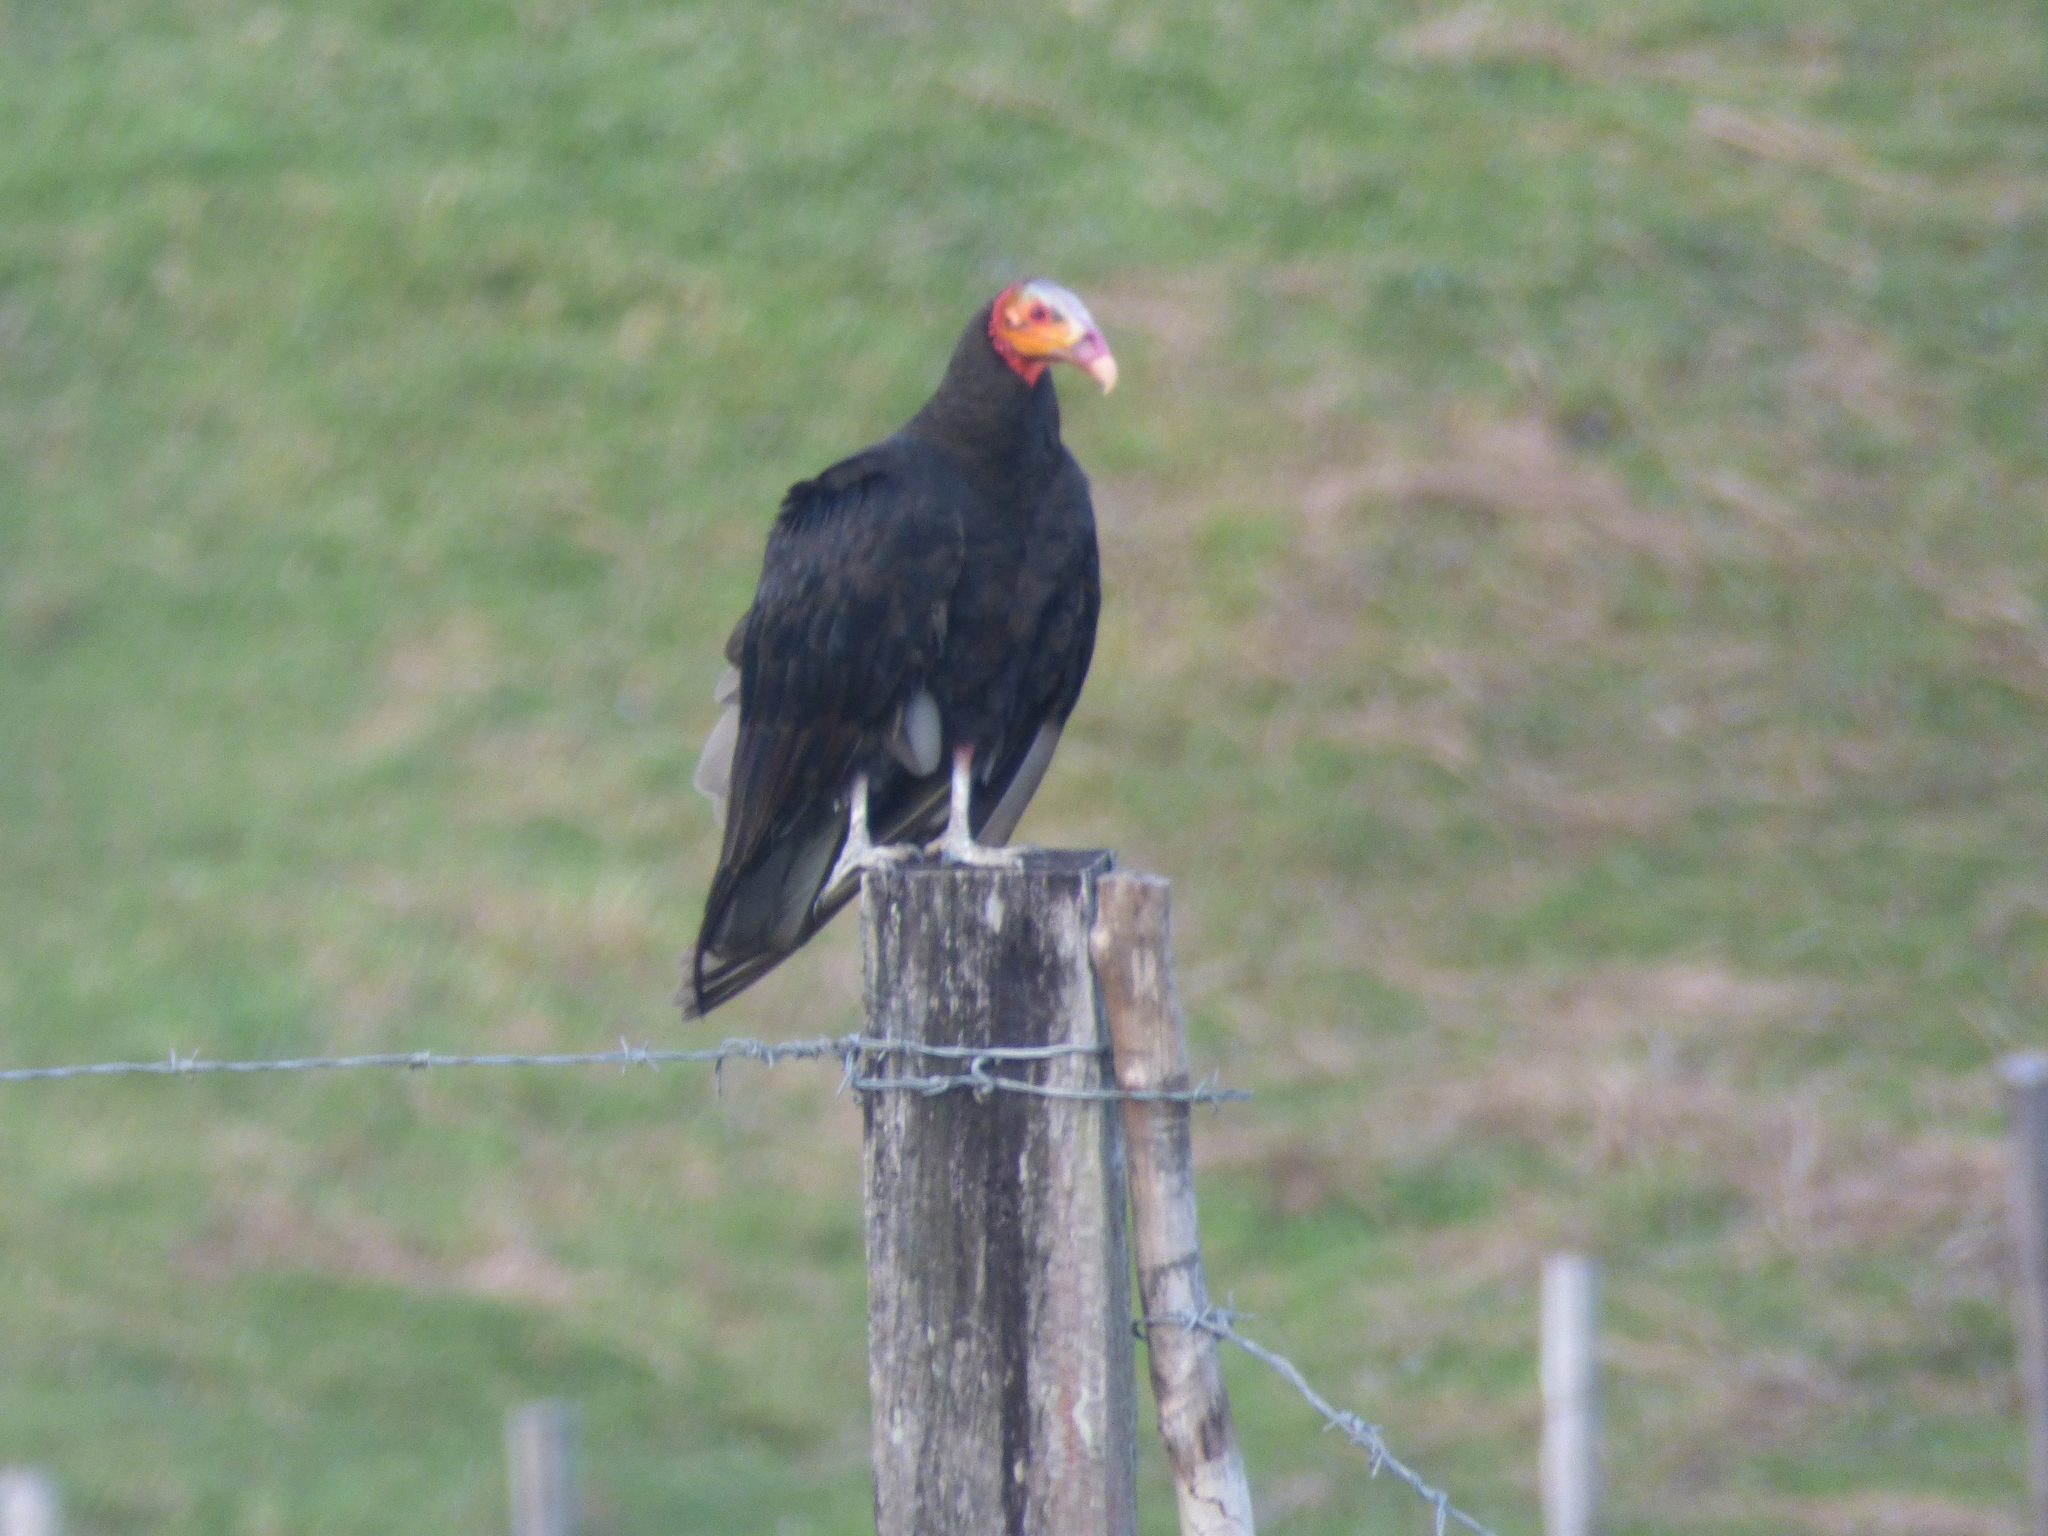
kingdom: Animalia
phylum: Chordata
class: Aves
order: Accipitriformes
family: Cathartidae
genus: Cathartes
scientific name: Cathartes burrovianus
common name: Lesser yellow-headed vulture
